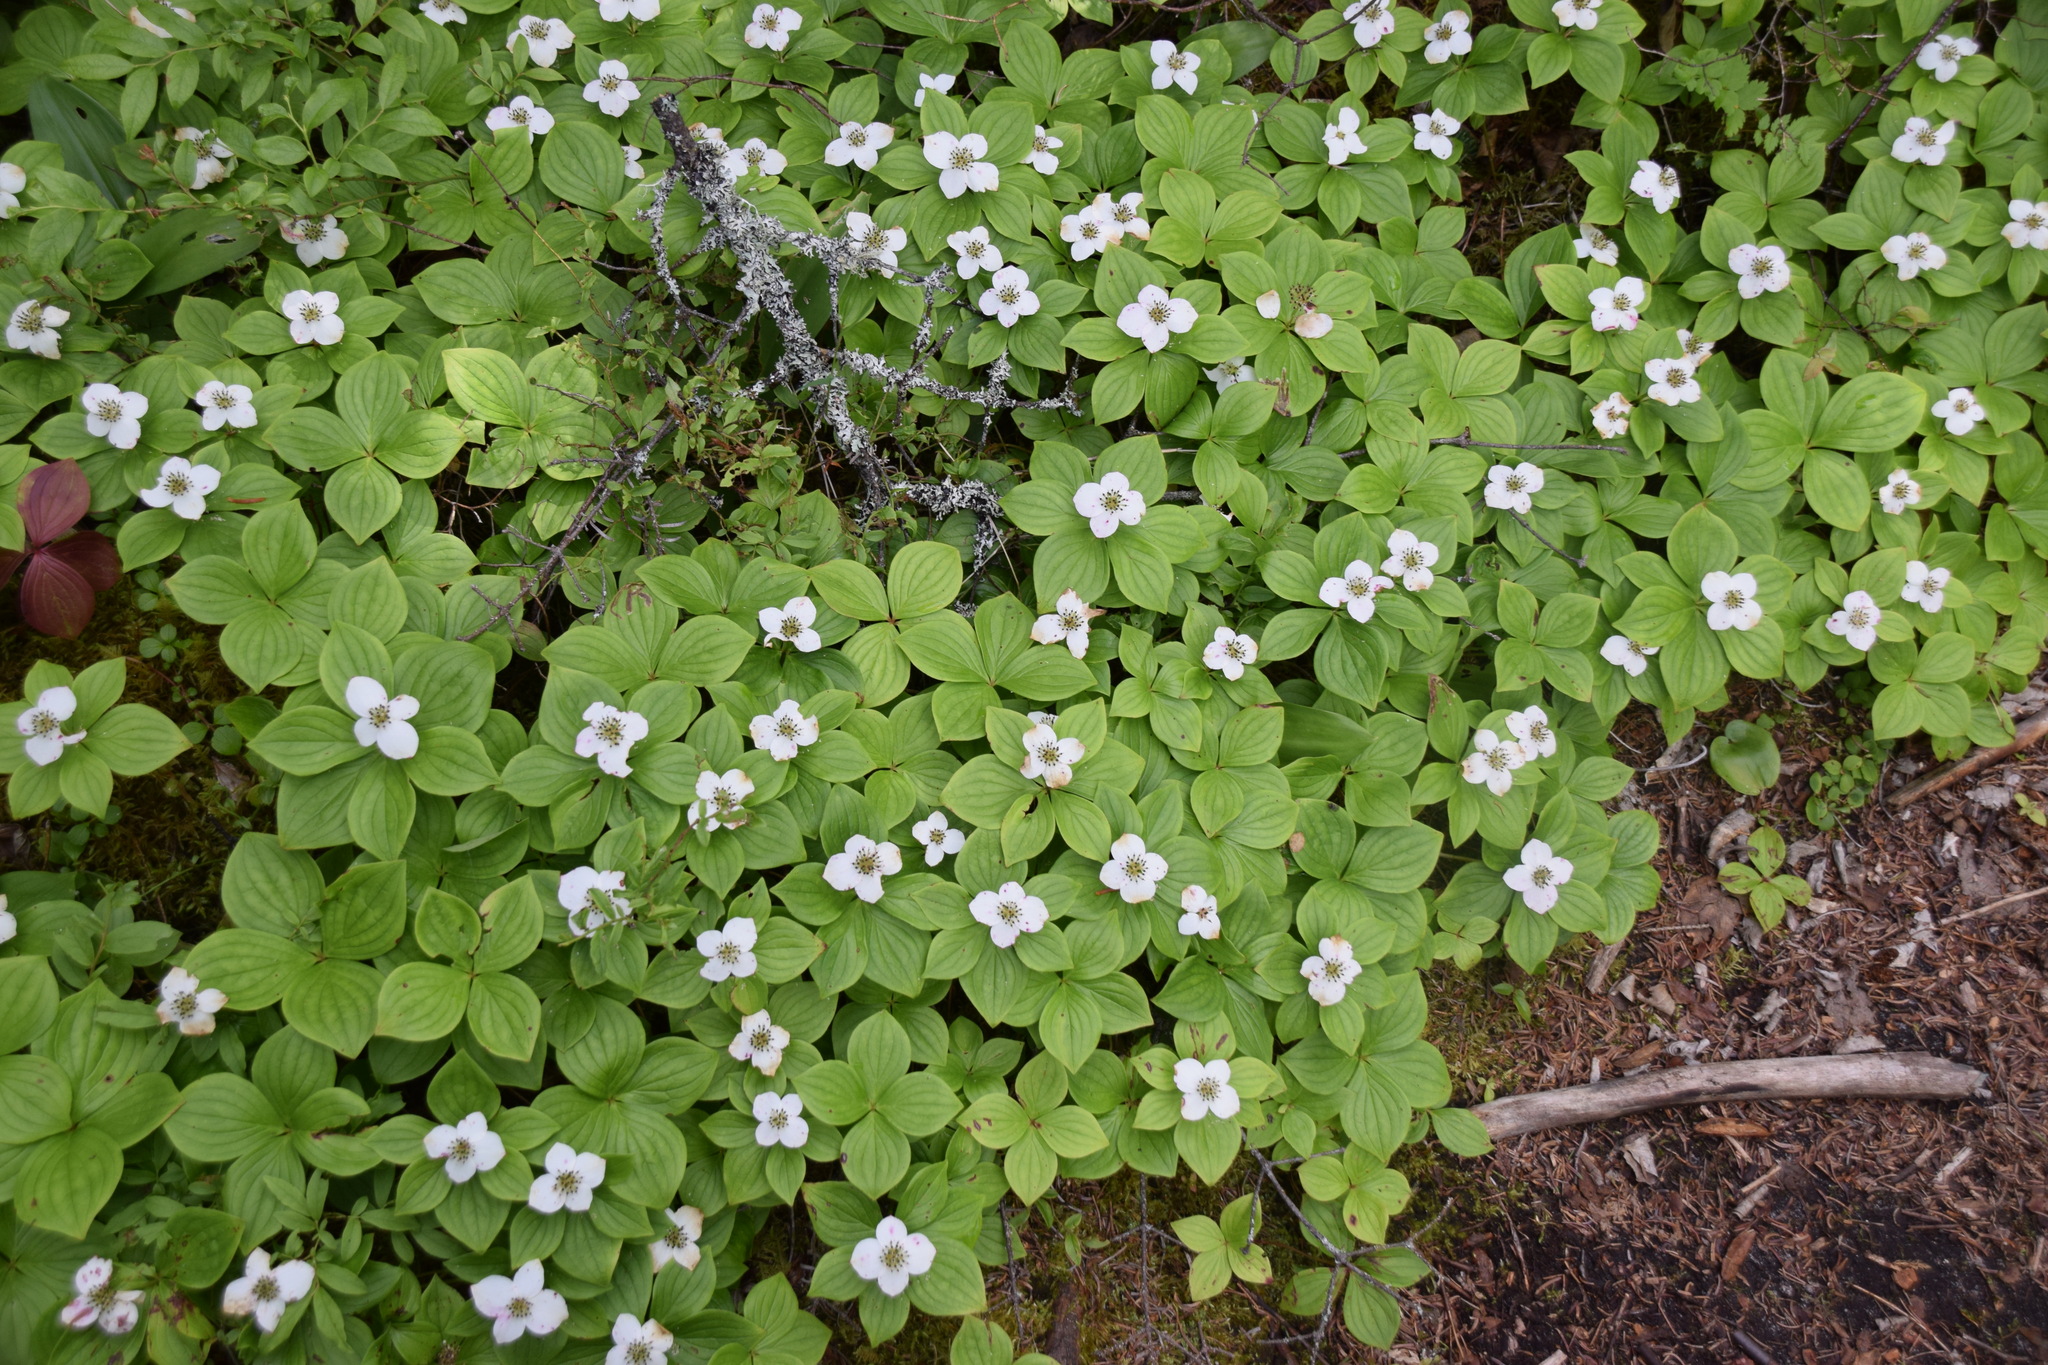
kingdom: Plantae
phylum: Tracheophyta
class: Magnoliopsida
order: Cornales
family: Cornaceae
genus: Cornus
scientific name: Cornus canadensis
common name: Creeping dogwood
